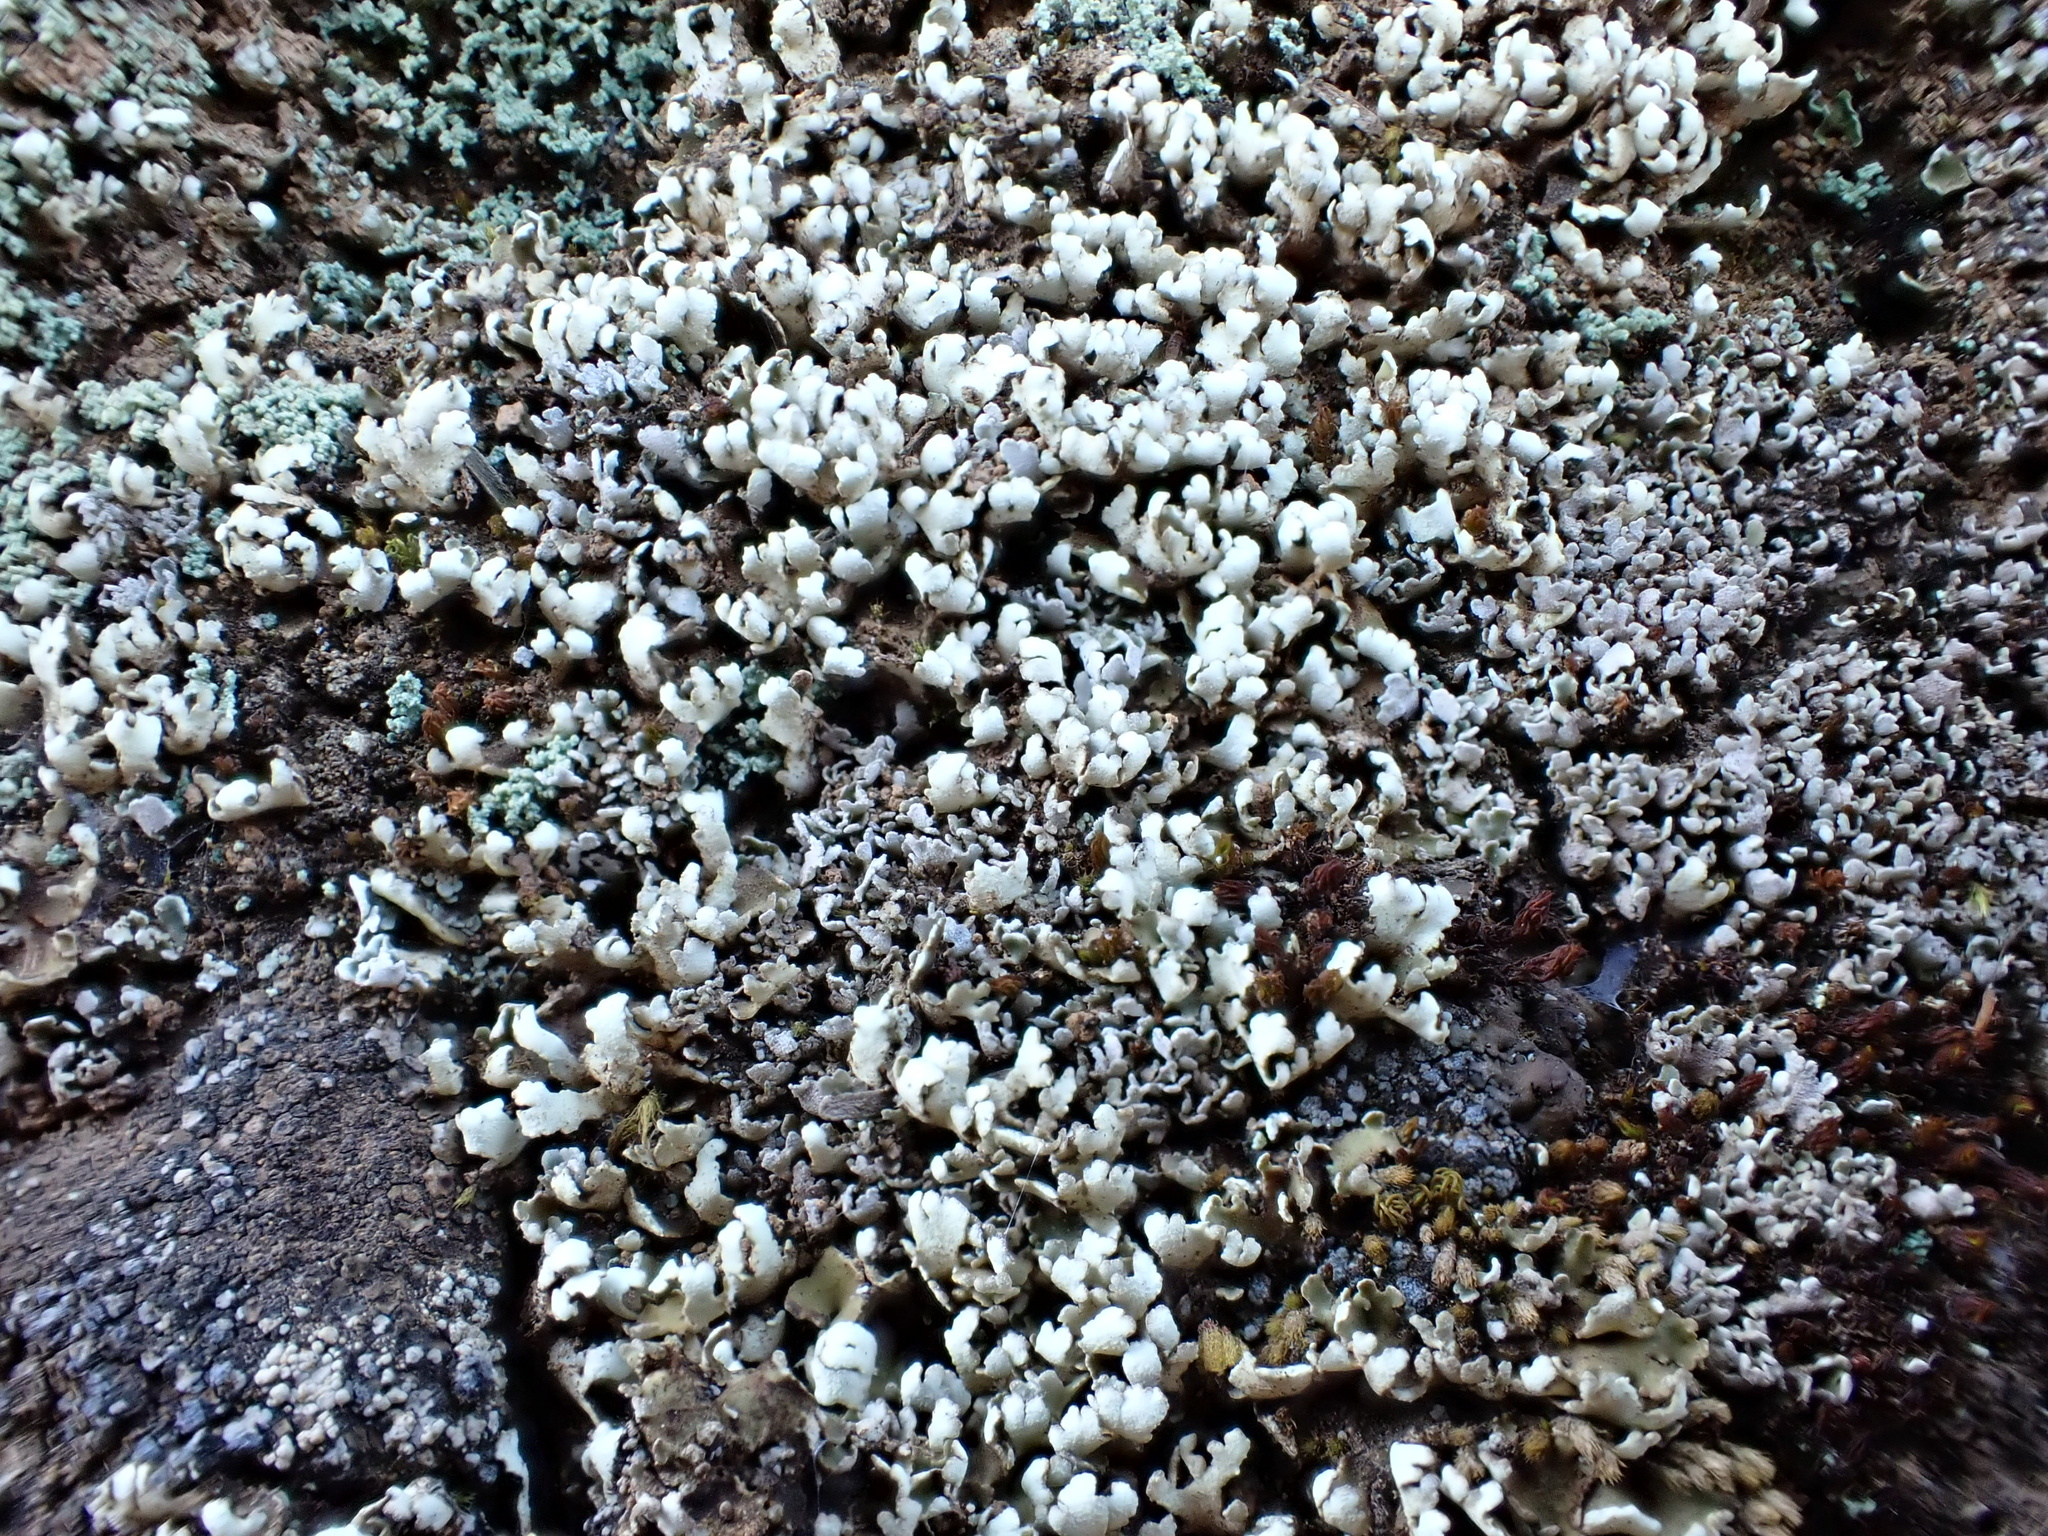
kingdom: Fungi
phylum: Ascomycota
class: Lecanoromycetes
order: Lecanorales
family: Cladoniaceae
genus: Cladonia
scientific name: Cladonia foliacea
